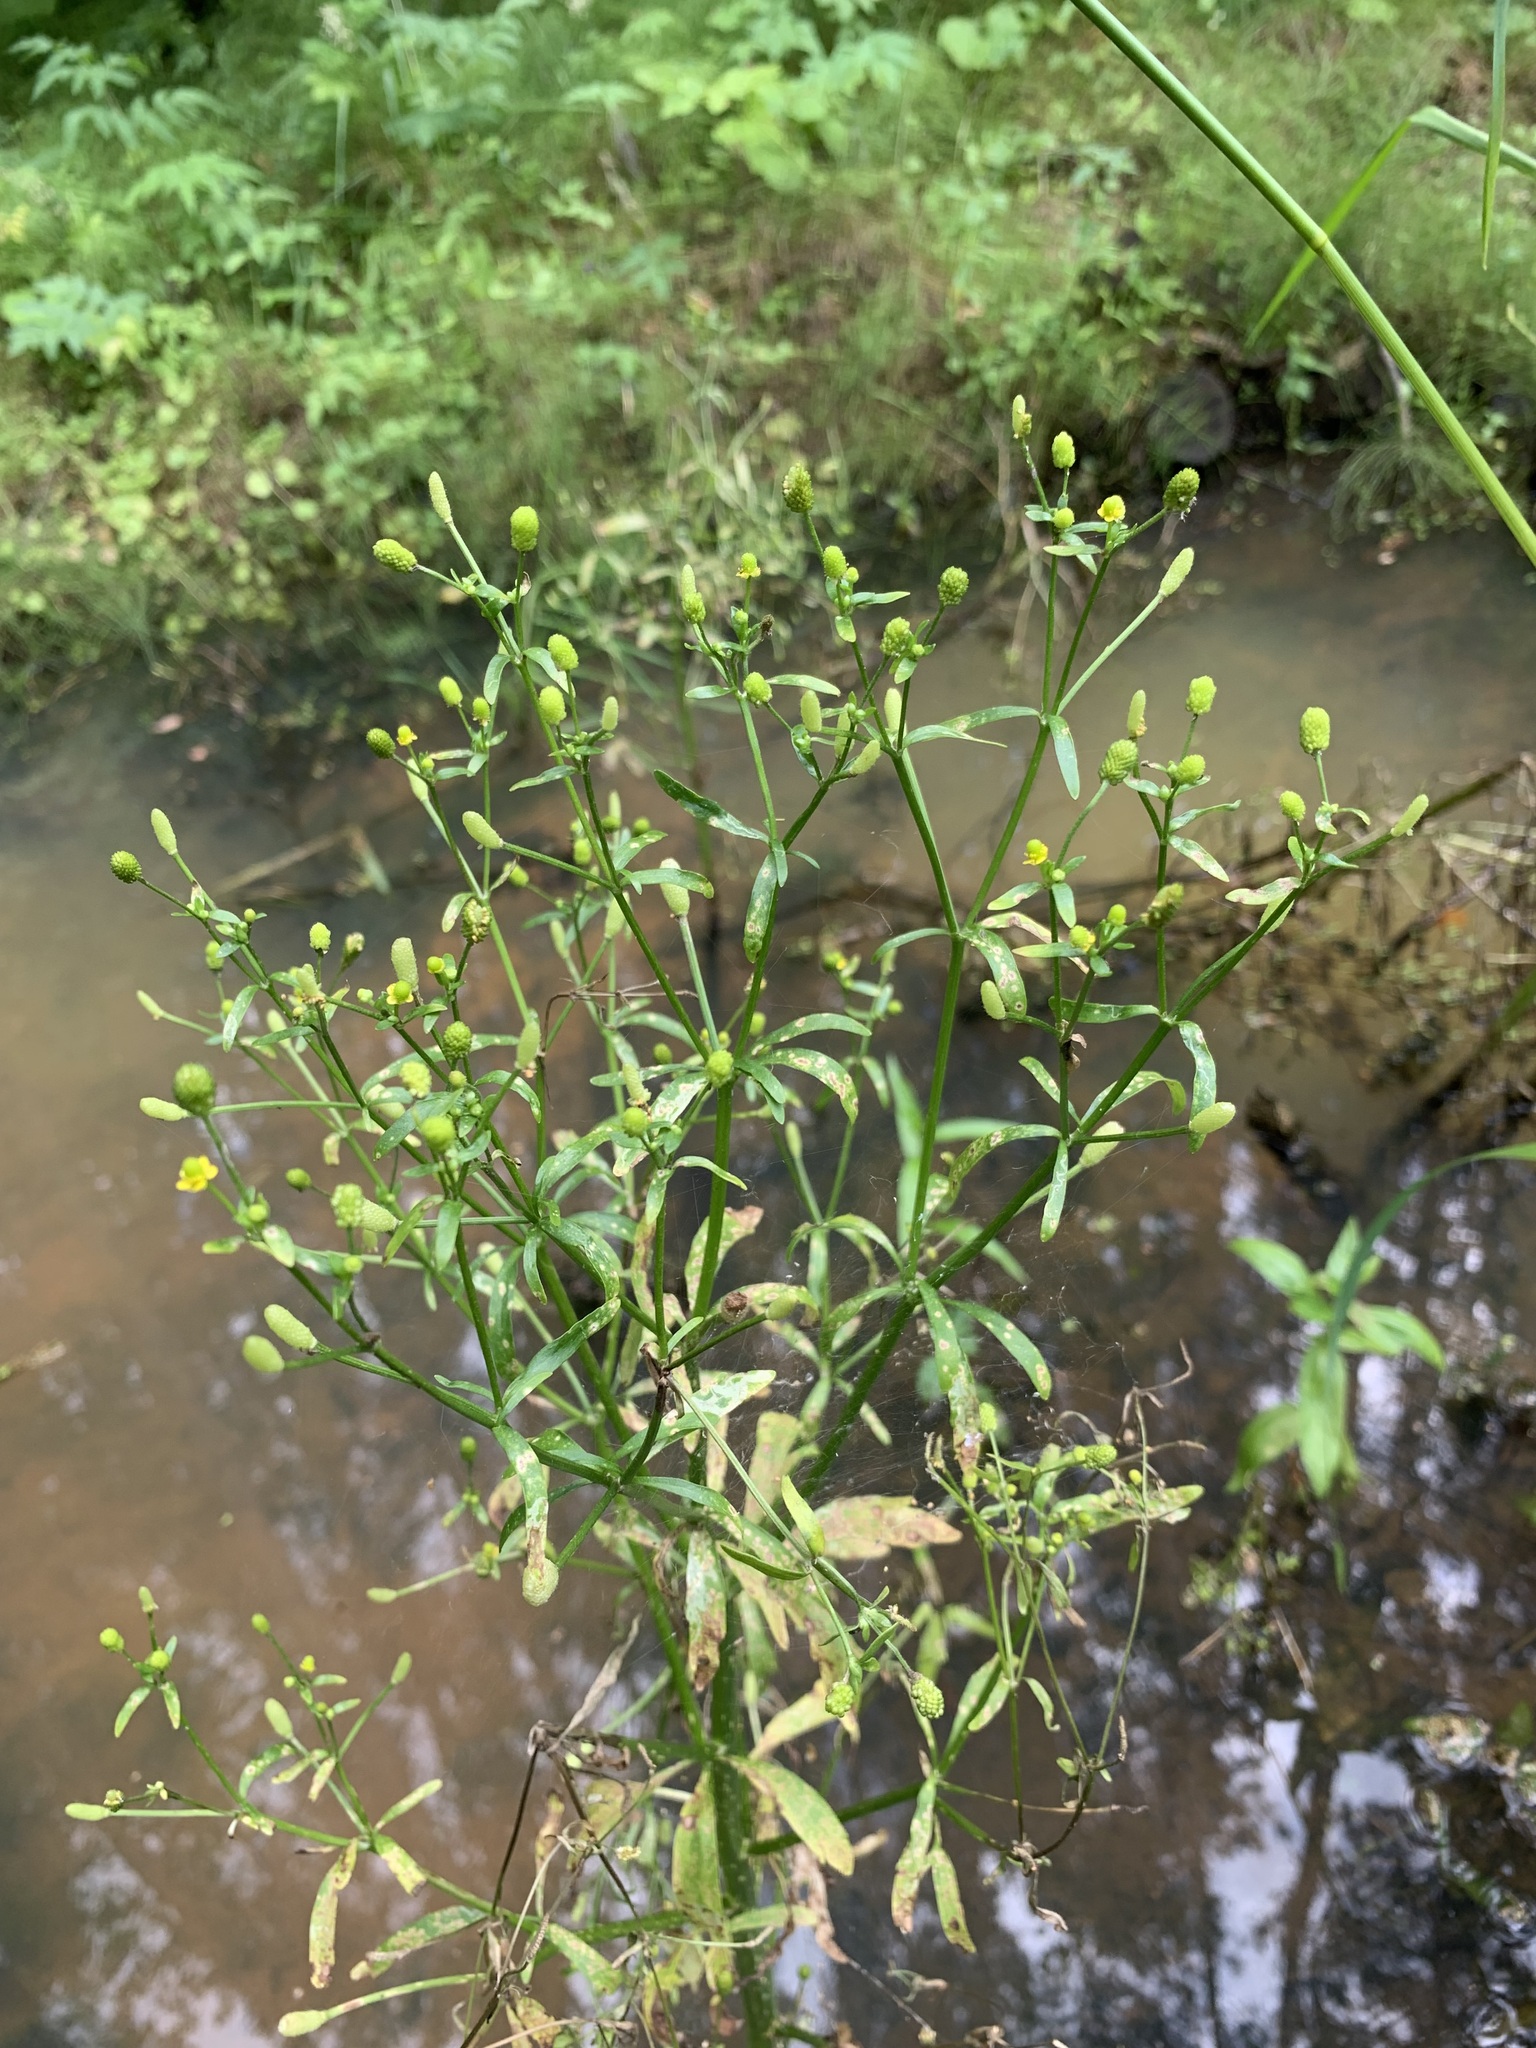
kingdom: Plantae
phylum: Tracheophyta
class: Magnoliopsida
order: Ranunculales
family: Ranunculaceae
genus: Ranunculus
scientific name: Ranunculus sceleratus
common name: Celery-leaved buttercup
